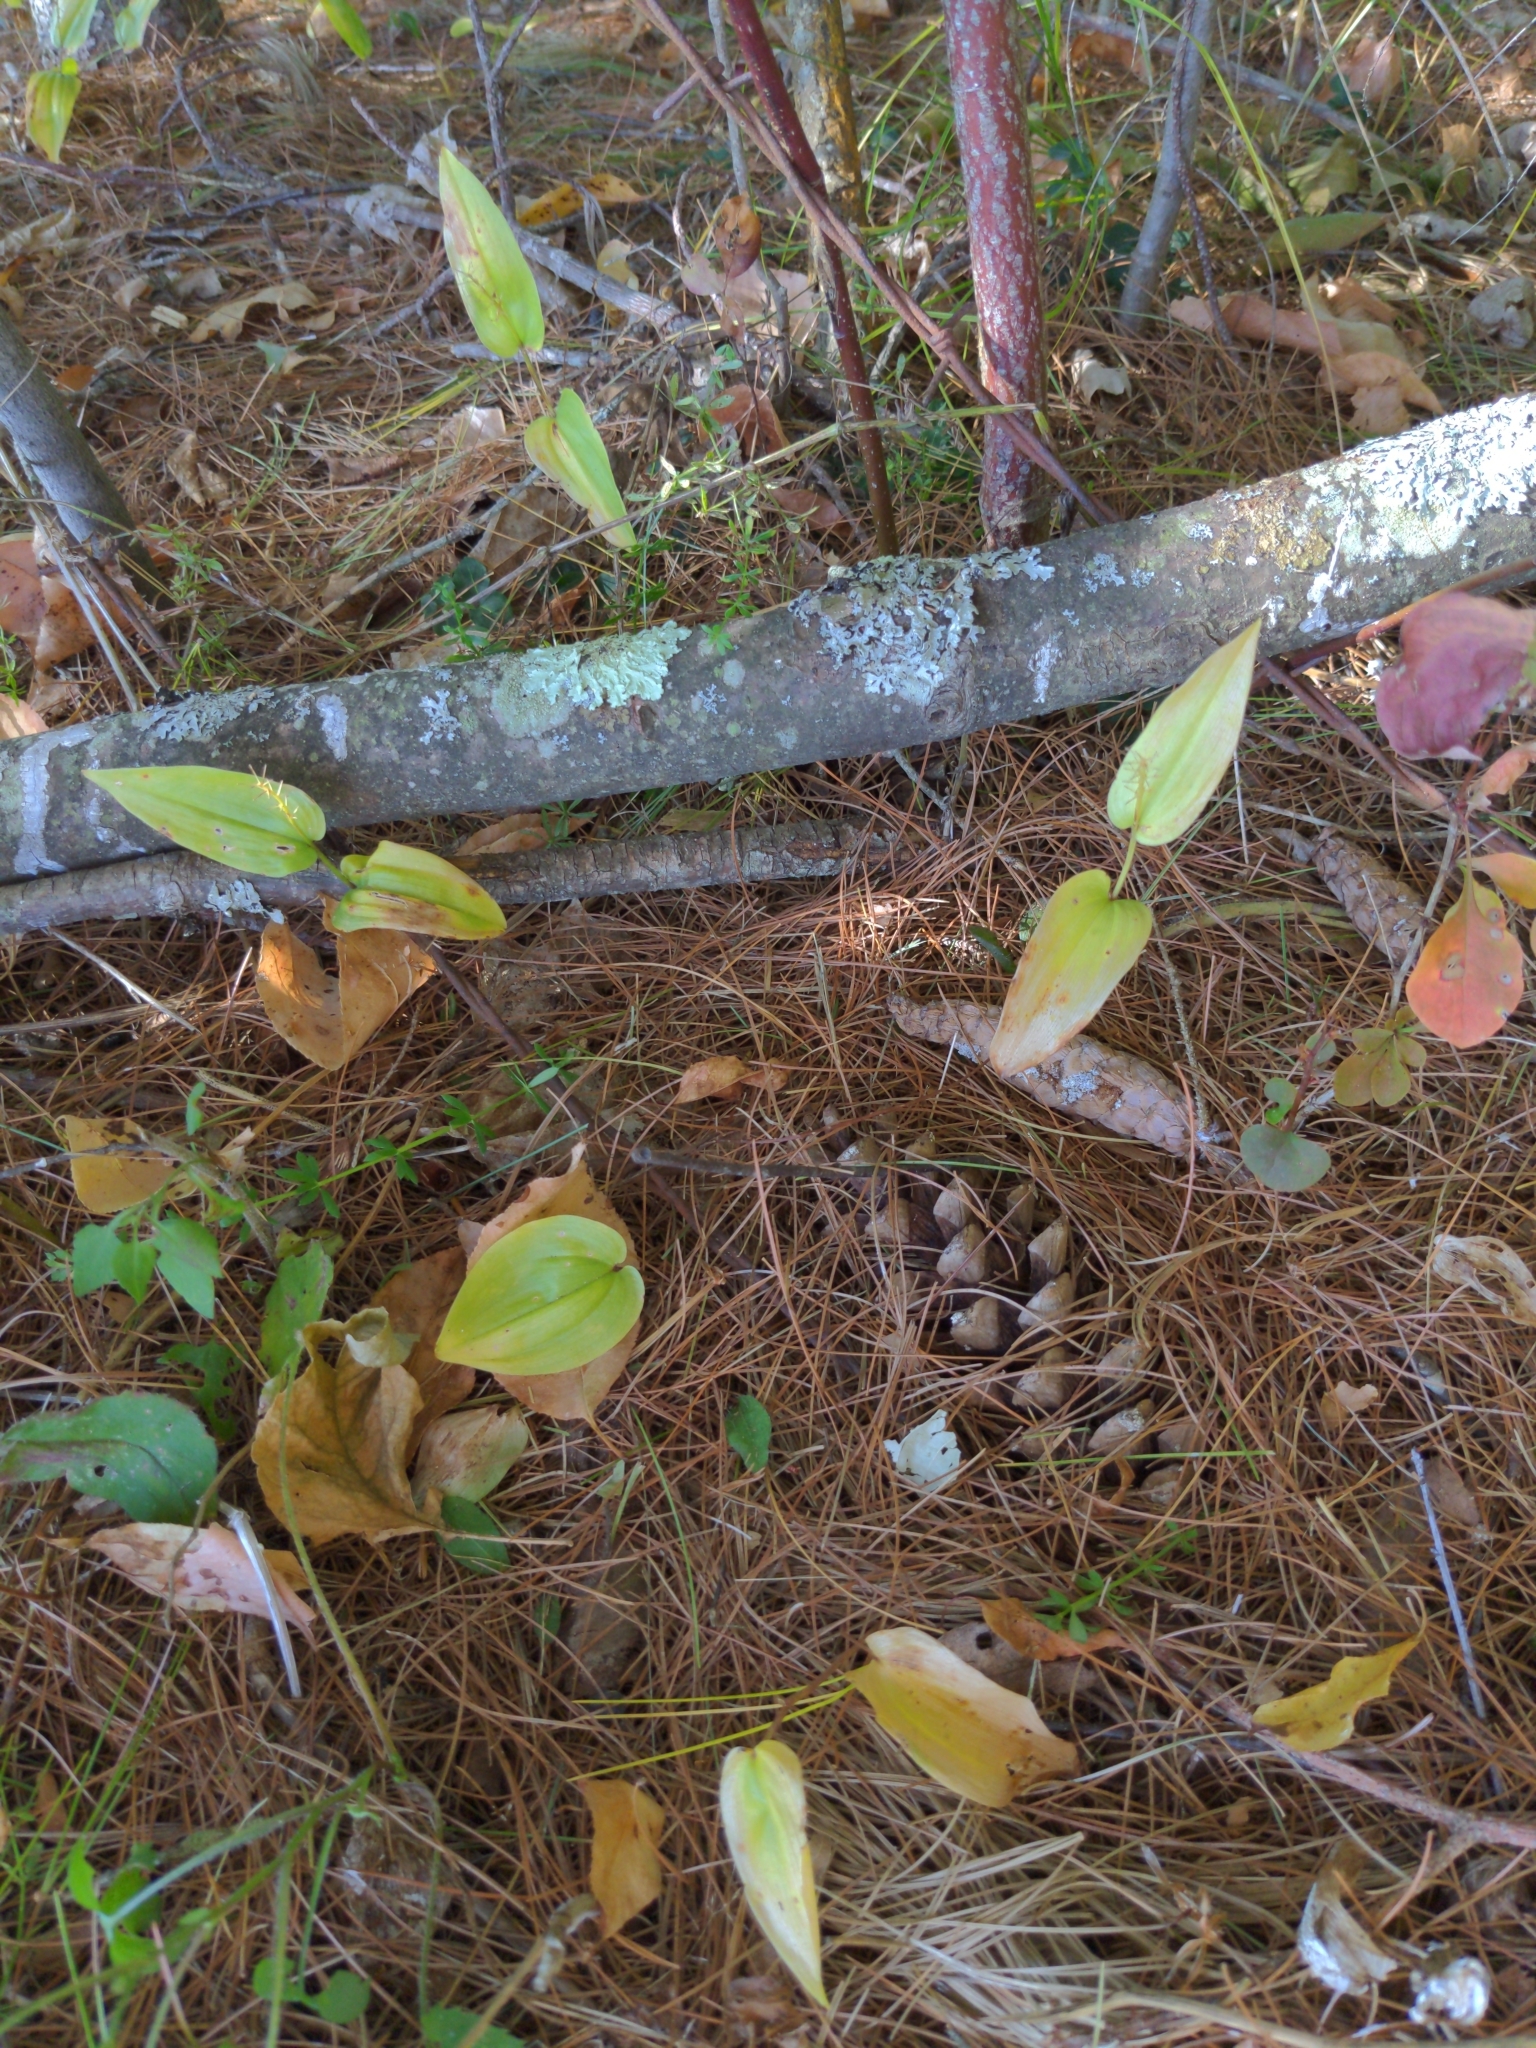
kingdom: Plantae
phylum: Tracheophyta
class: Liliopsida
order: Asparagales
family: Asparagaceae
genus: Maianthemum
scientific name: Maianthemum canadense
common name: False lily-of-the-valley
